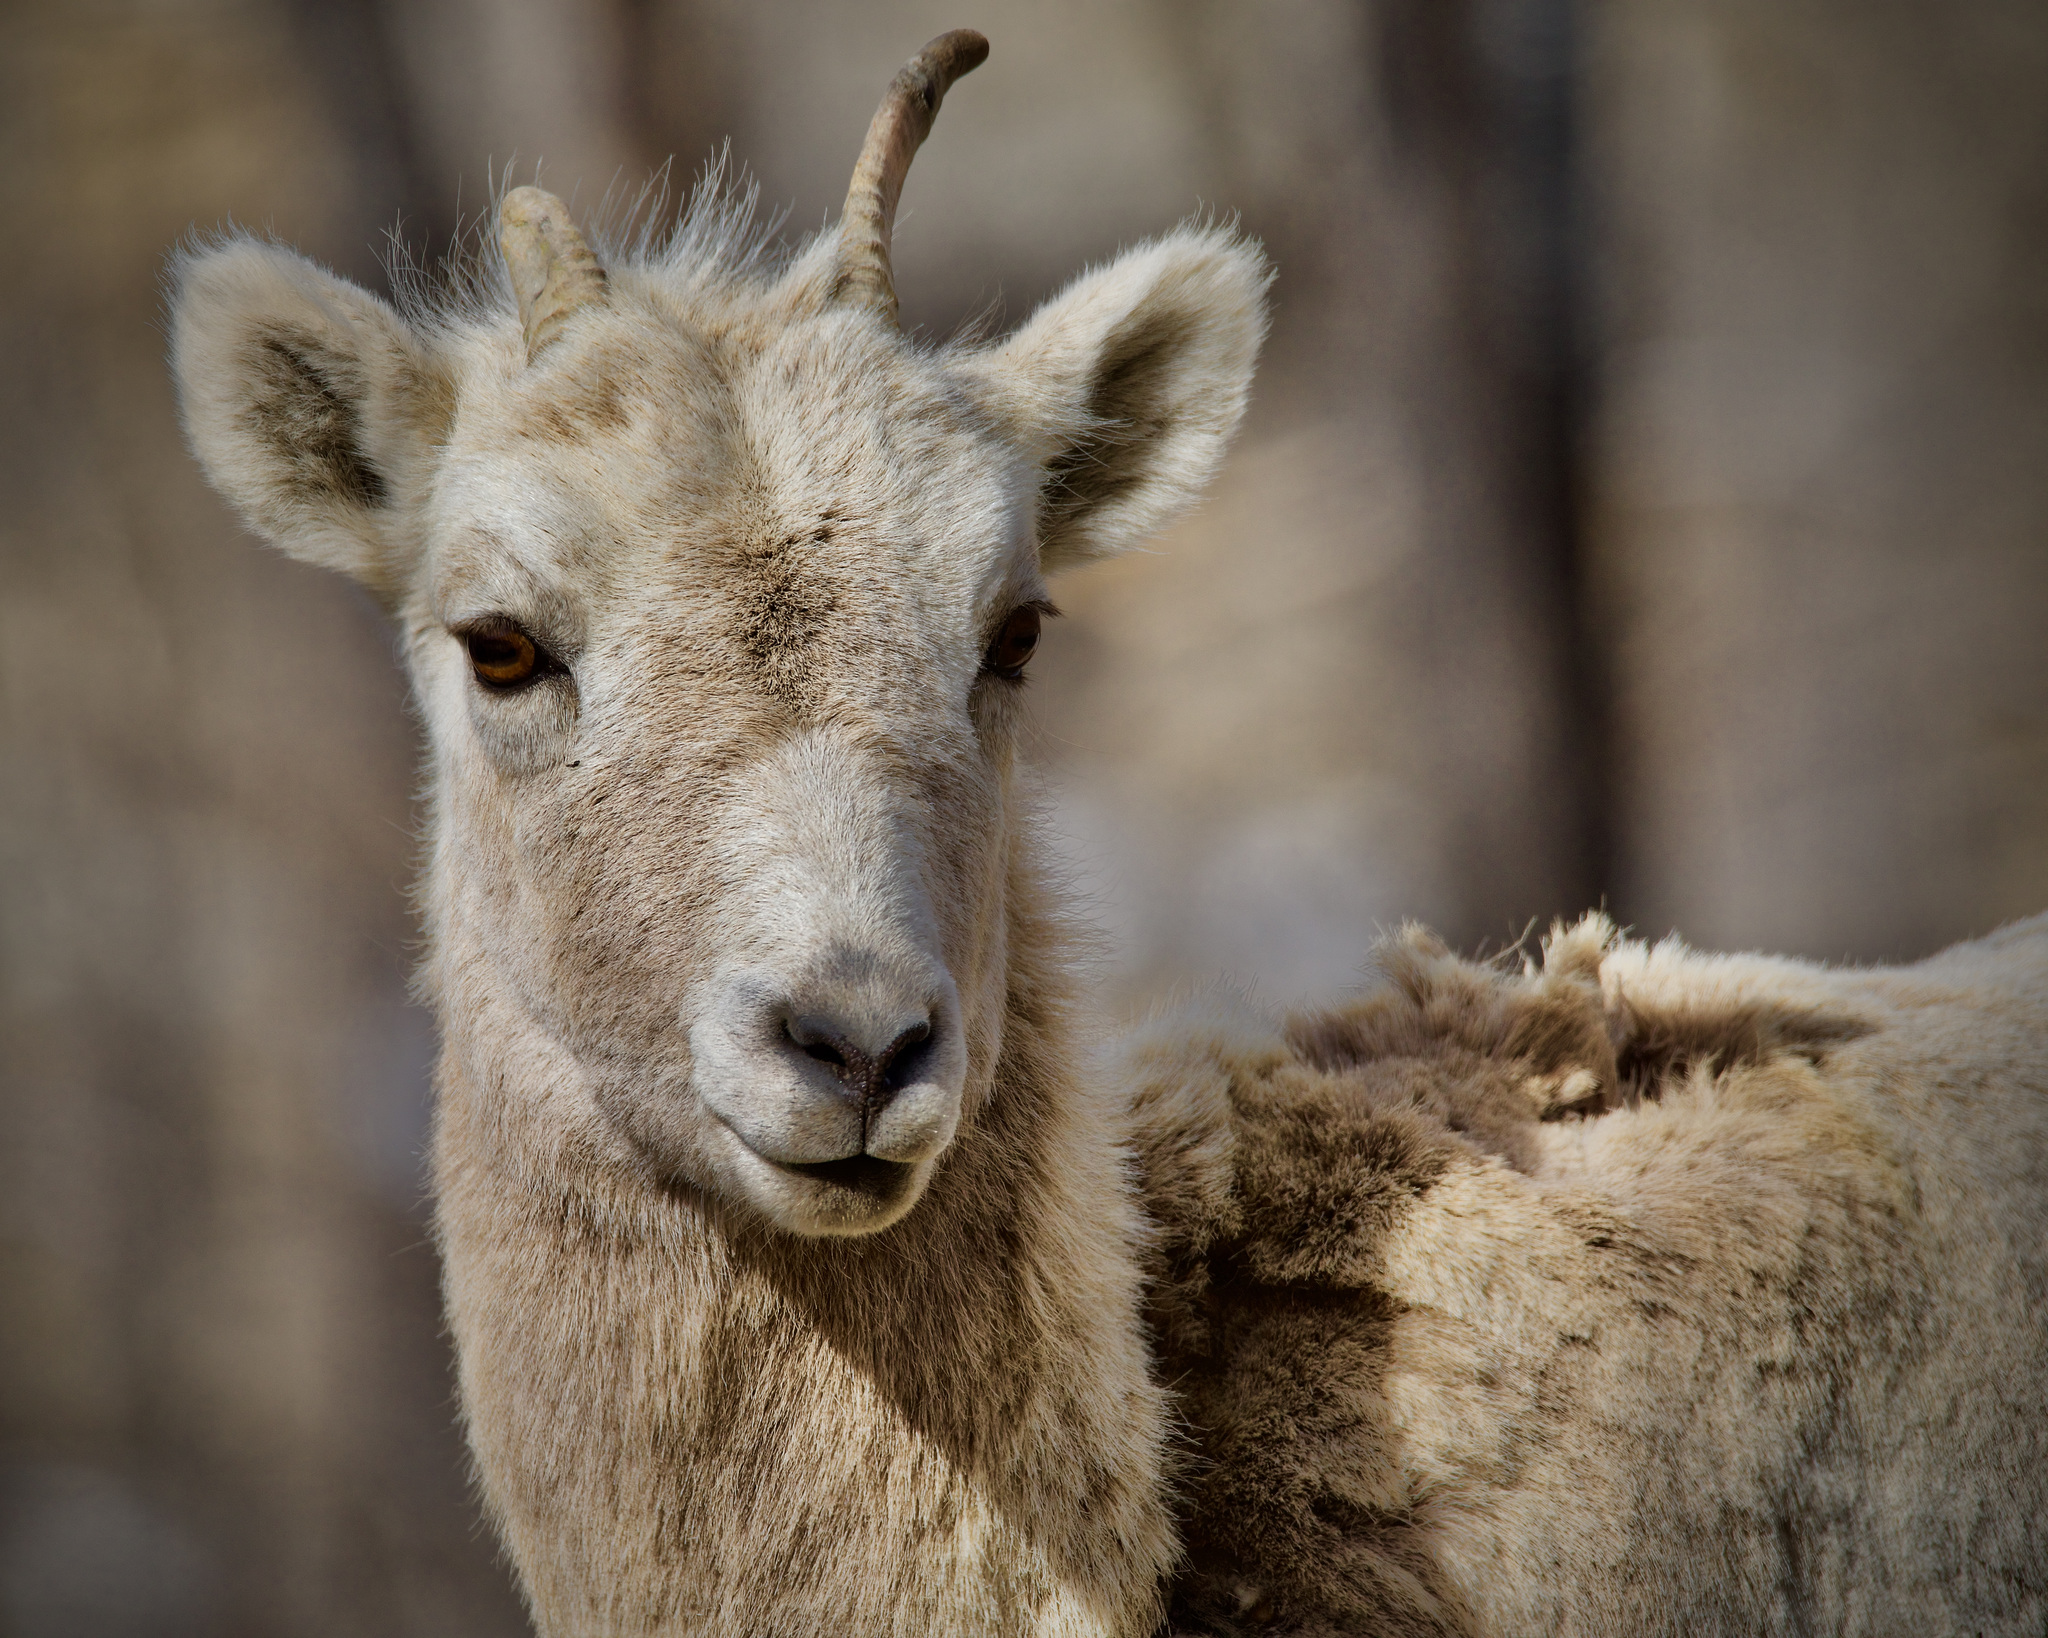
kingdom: Animalia
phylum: Chordata
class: Mammalia
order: Artiodactyla
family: Bovidae
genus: Ovis
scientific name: Ovis canadensis
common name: Bighorn sheep
